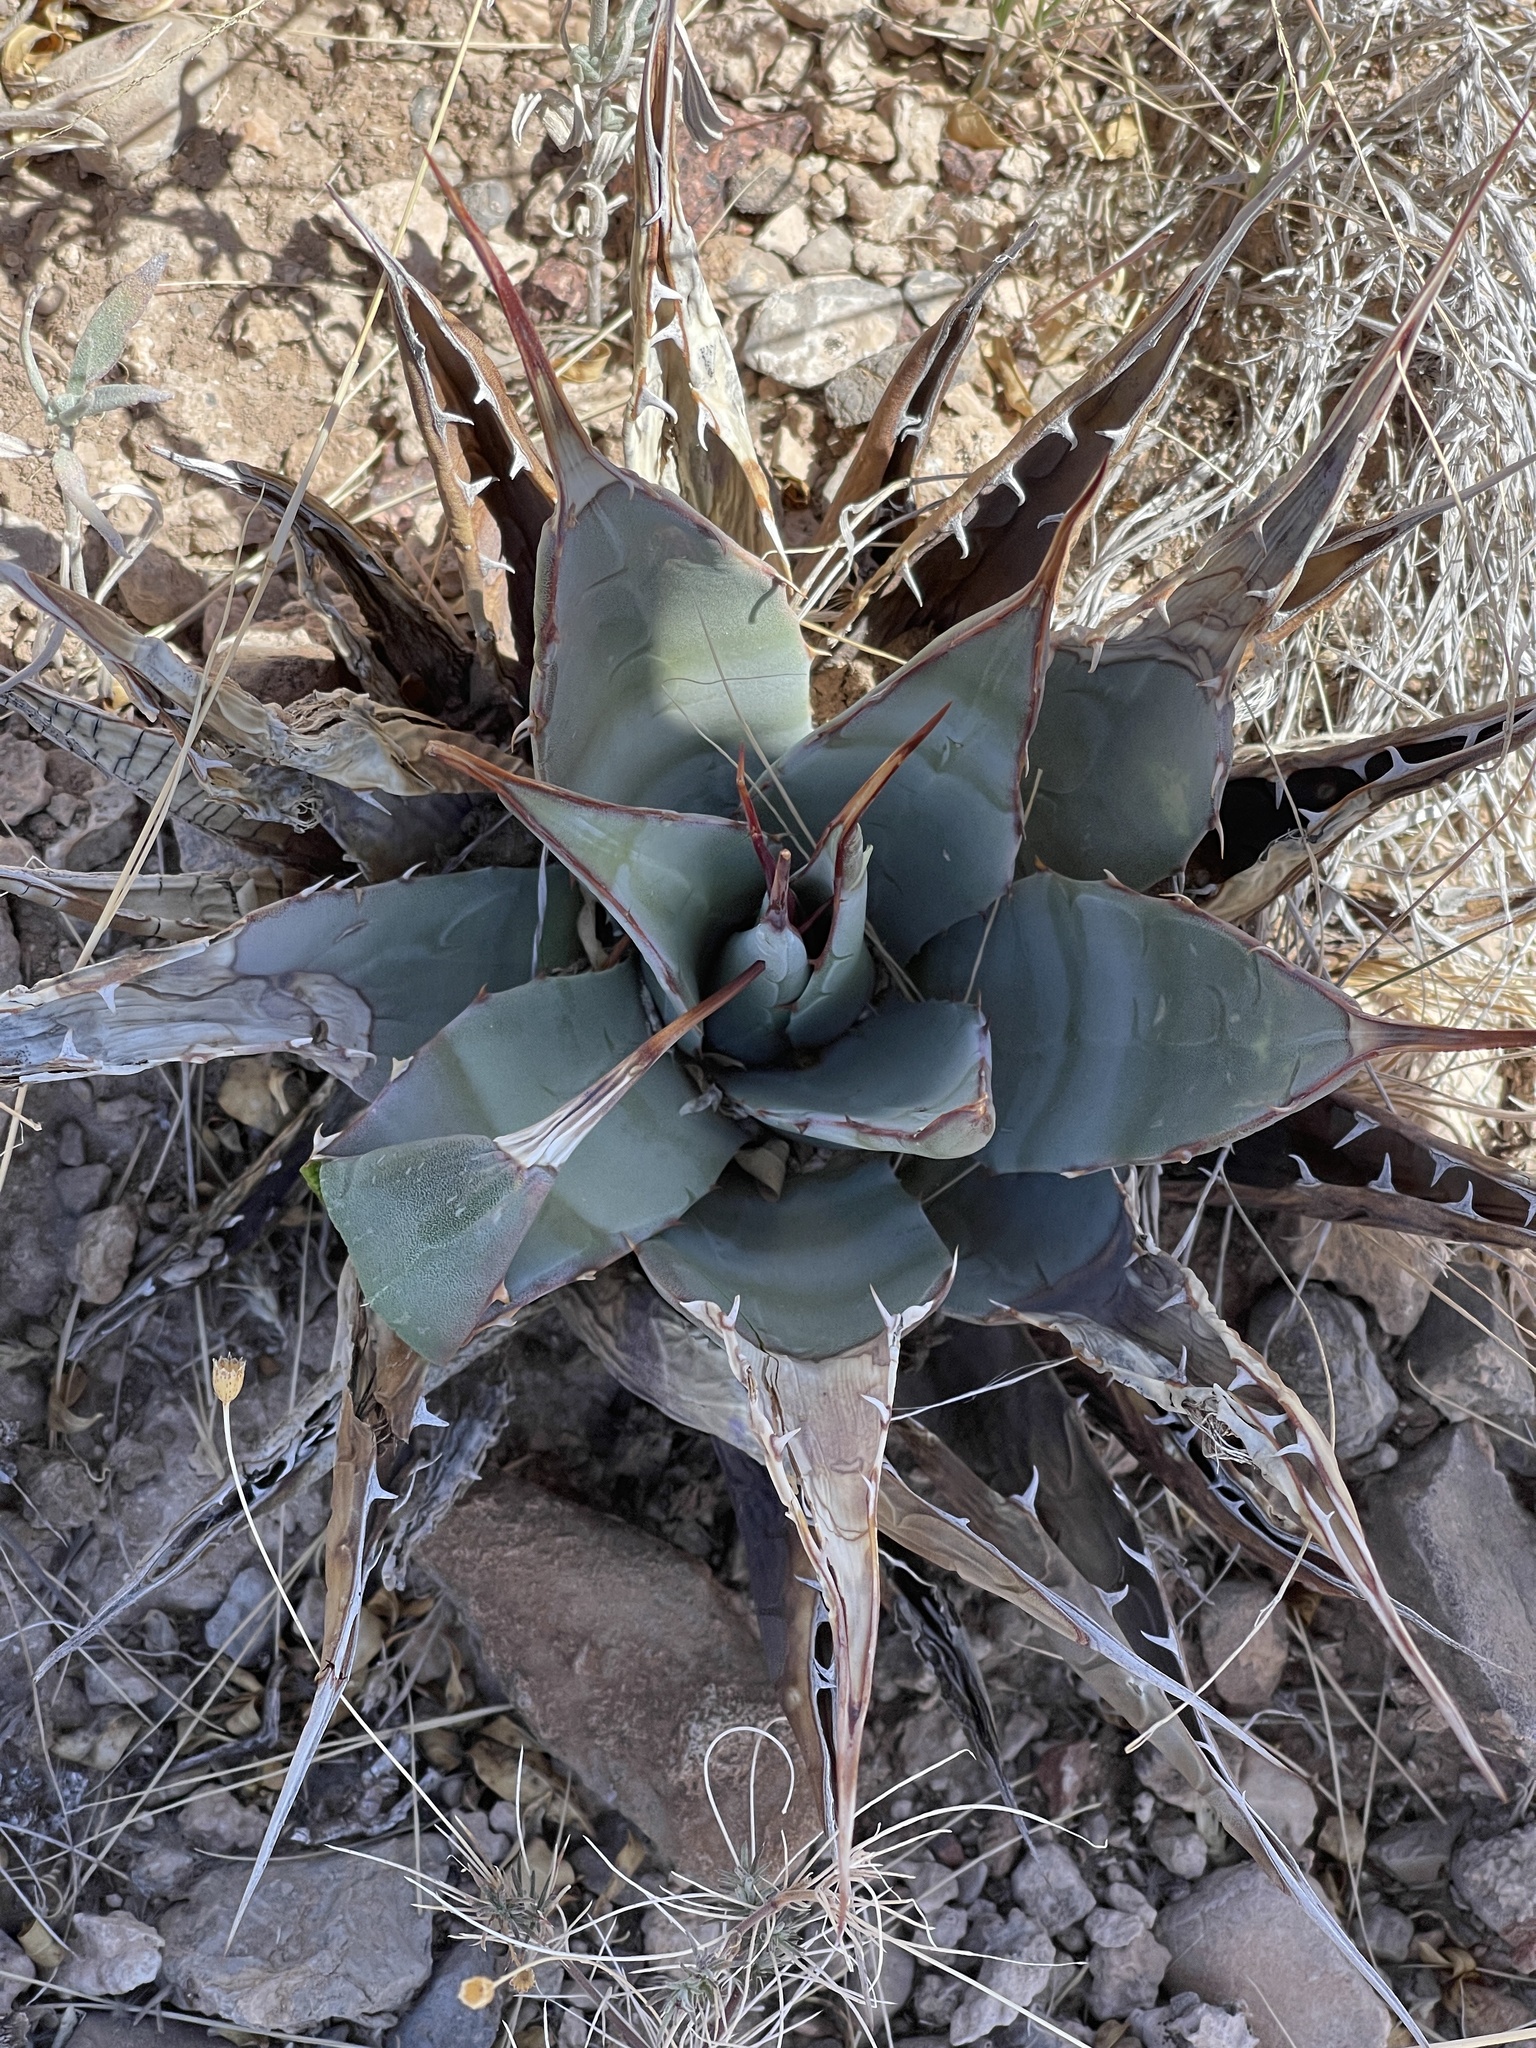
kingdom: Plantae
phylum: Tracheophyta
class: Liliopsida
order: Asparagales
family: Asparagaceae
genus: Agave
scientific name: Agave parryi
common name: Parry's agave
